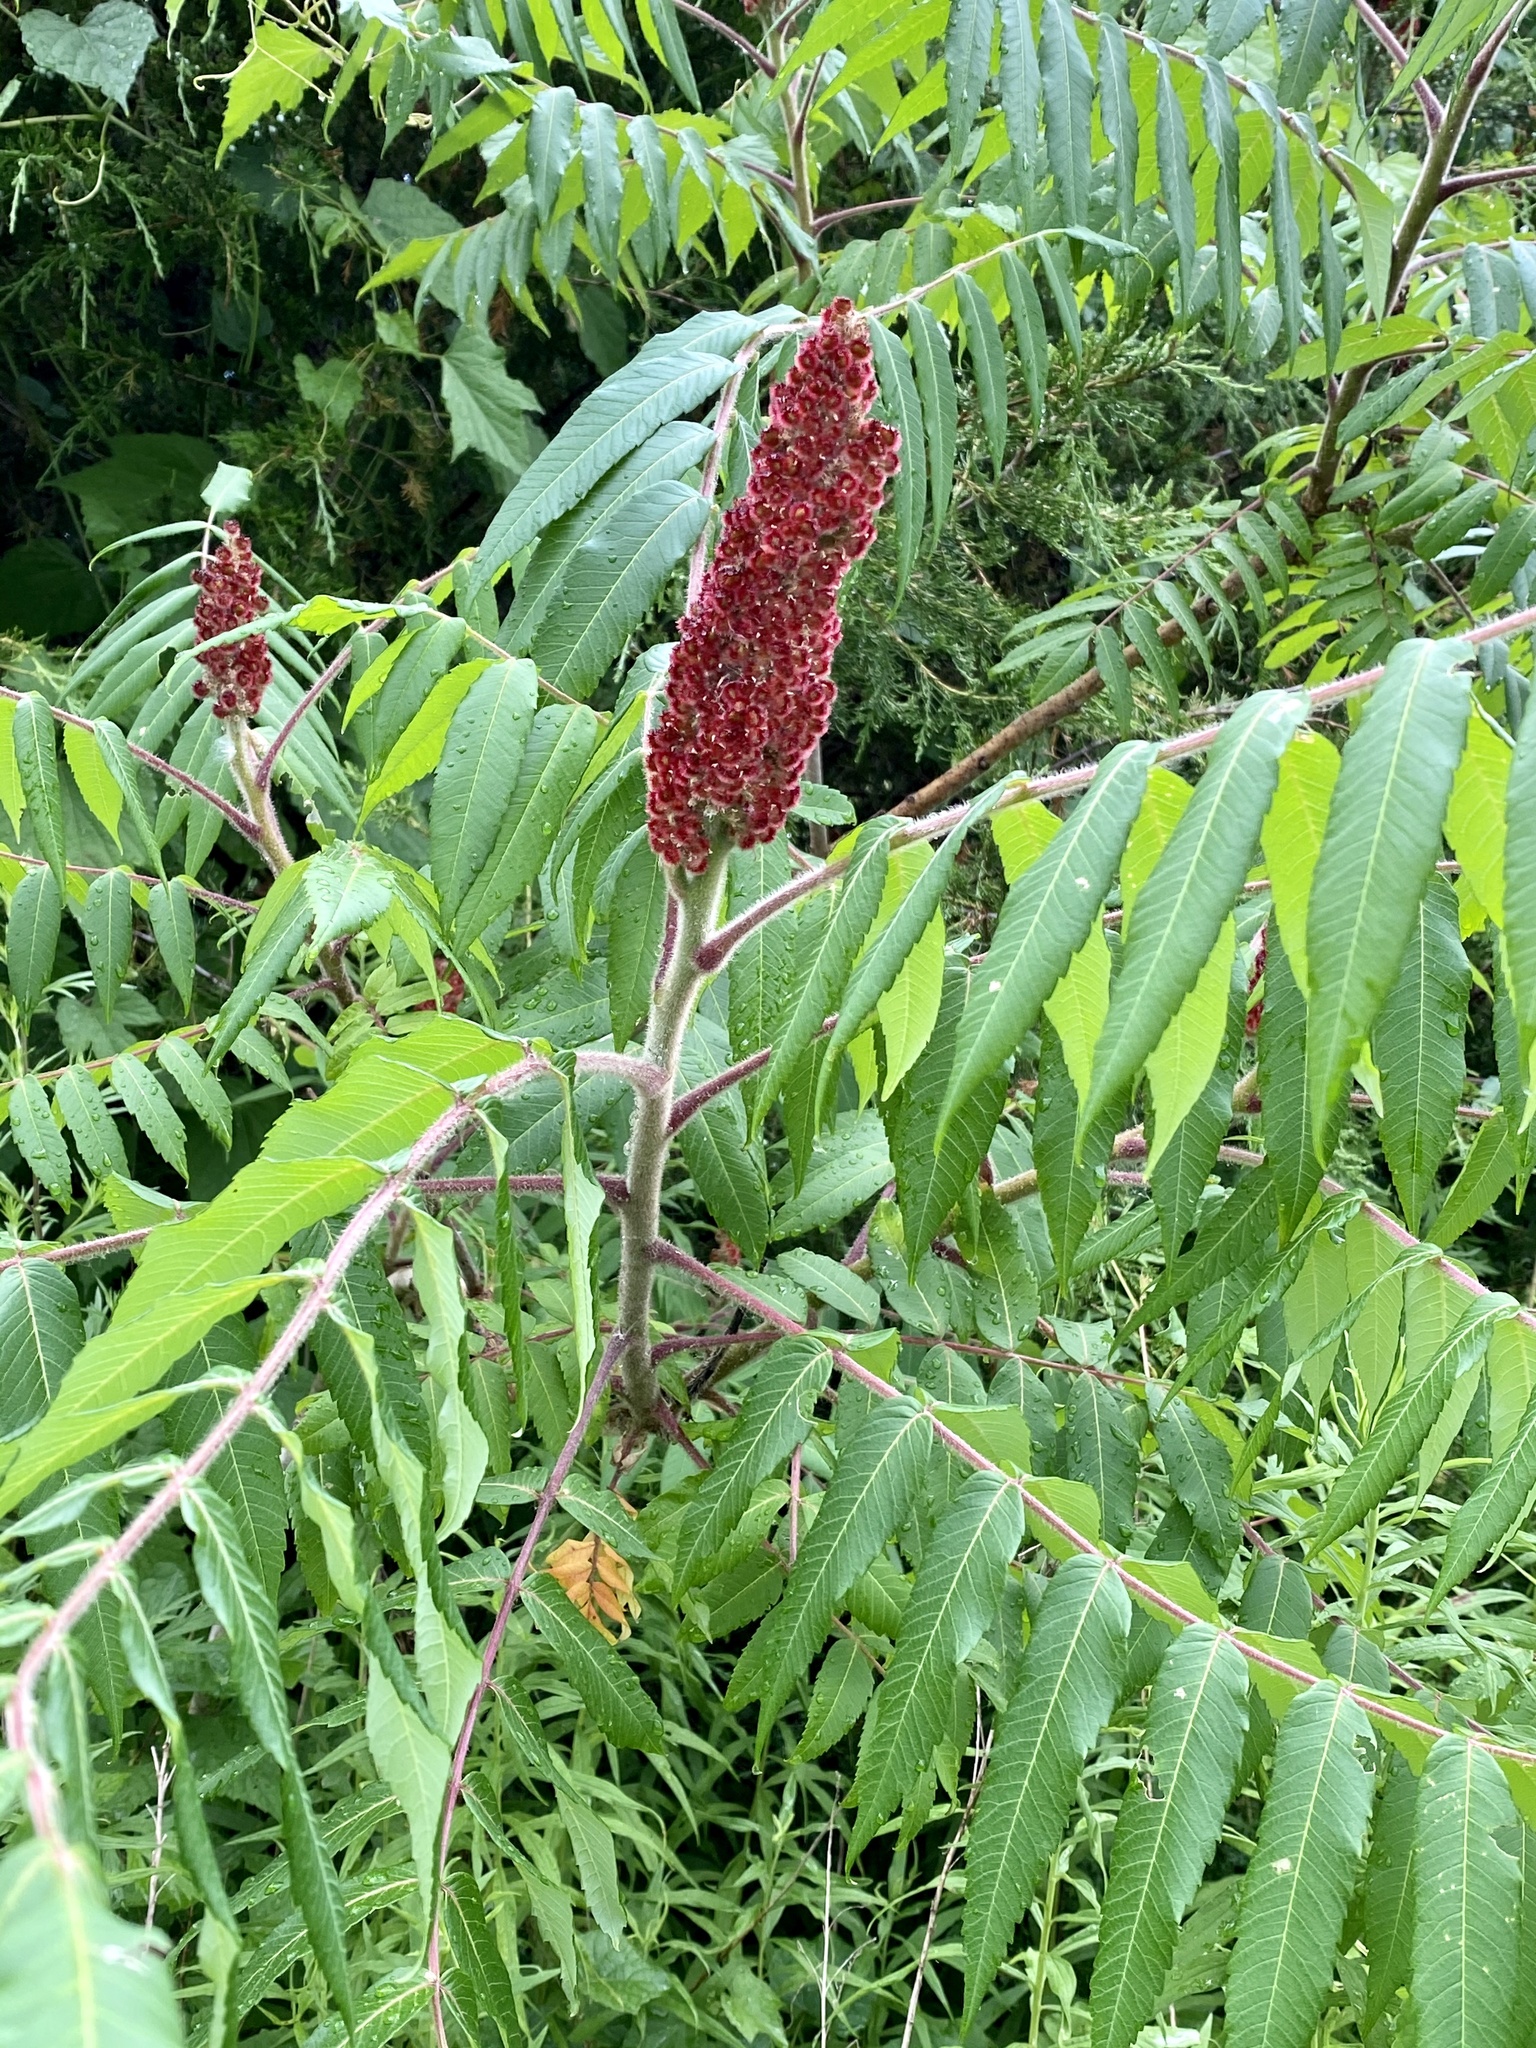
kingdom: Plantae
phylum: Tracheophyta
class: Magnoliopsida
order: Sapindales
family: Anacardiaceae
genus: Rhus
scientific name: Rhus typhina
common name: Staghorn sumac
